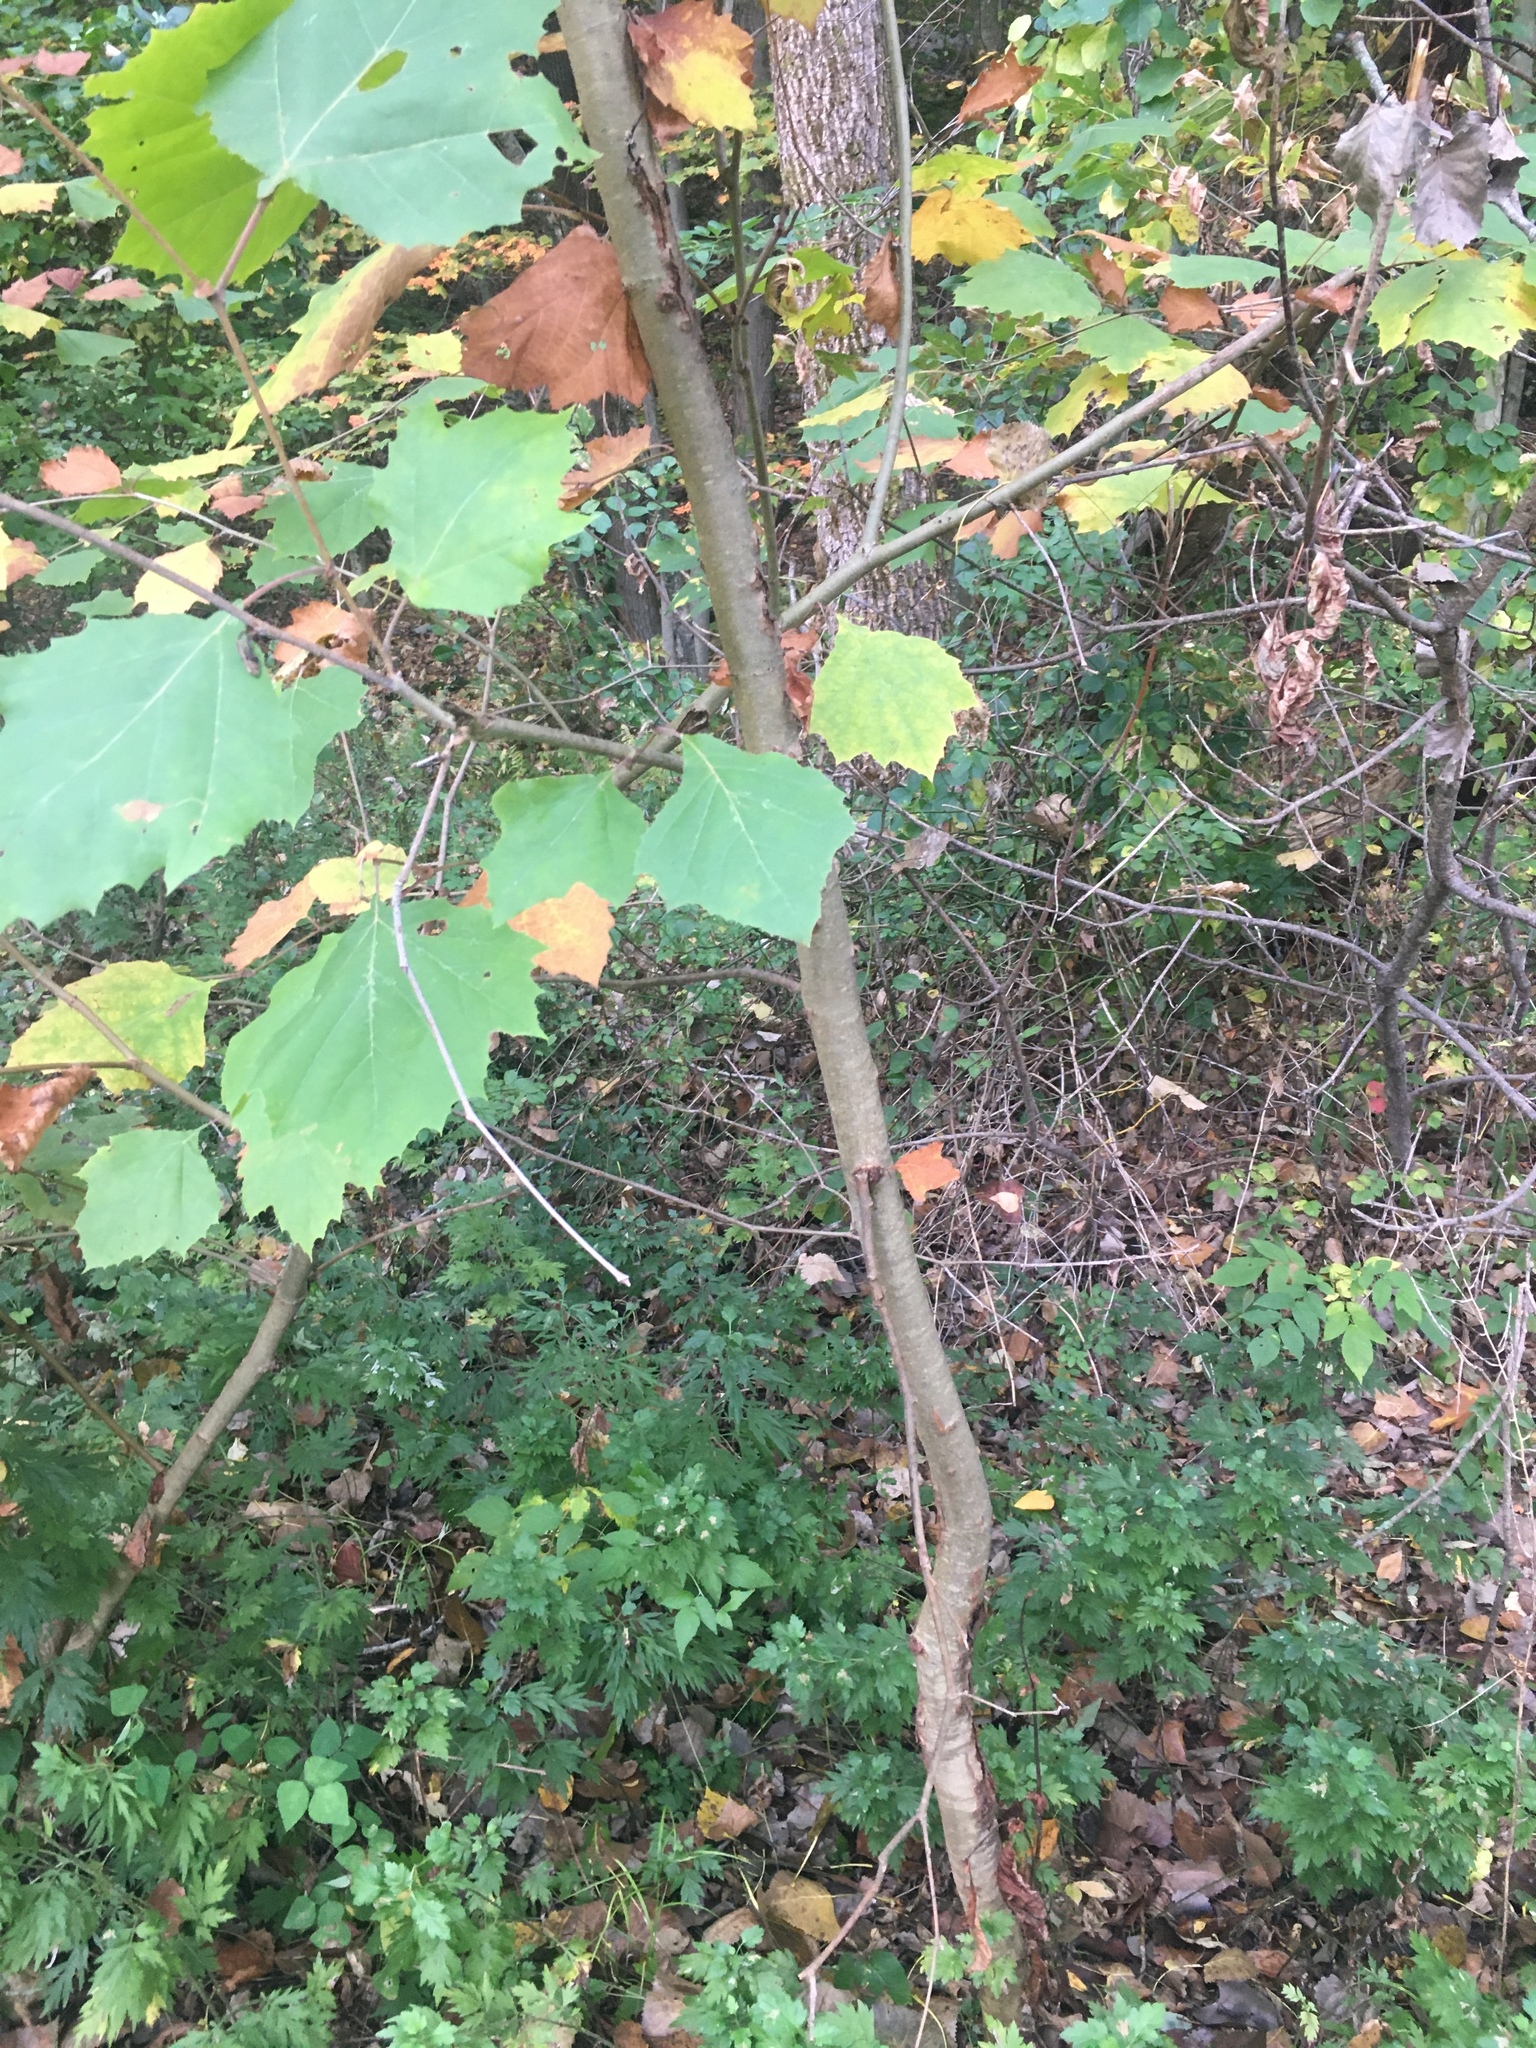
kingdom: Plantae
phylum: Tracheophyta
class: Magnoliopsida
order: Proteales
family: Platanaceae
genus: Platanus
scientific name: Platanus occidentalis
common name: American sycamore
